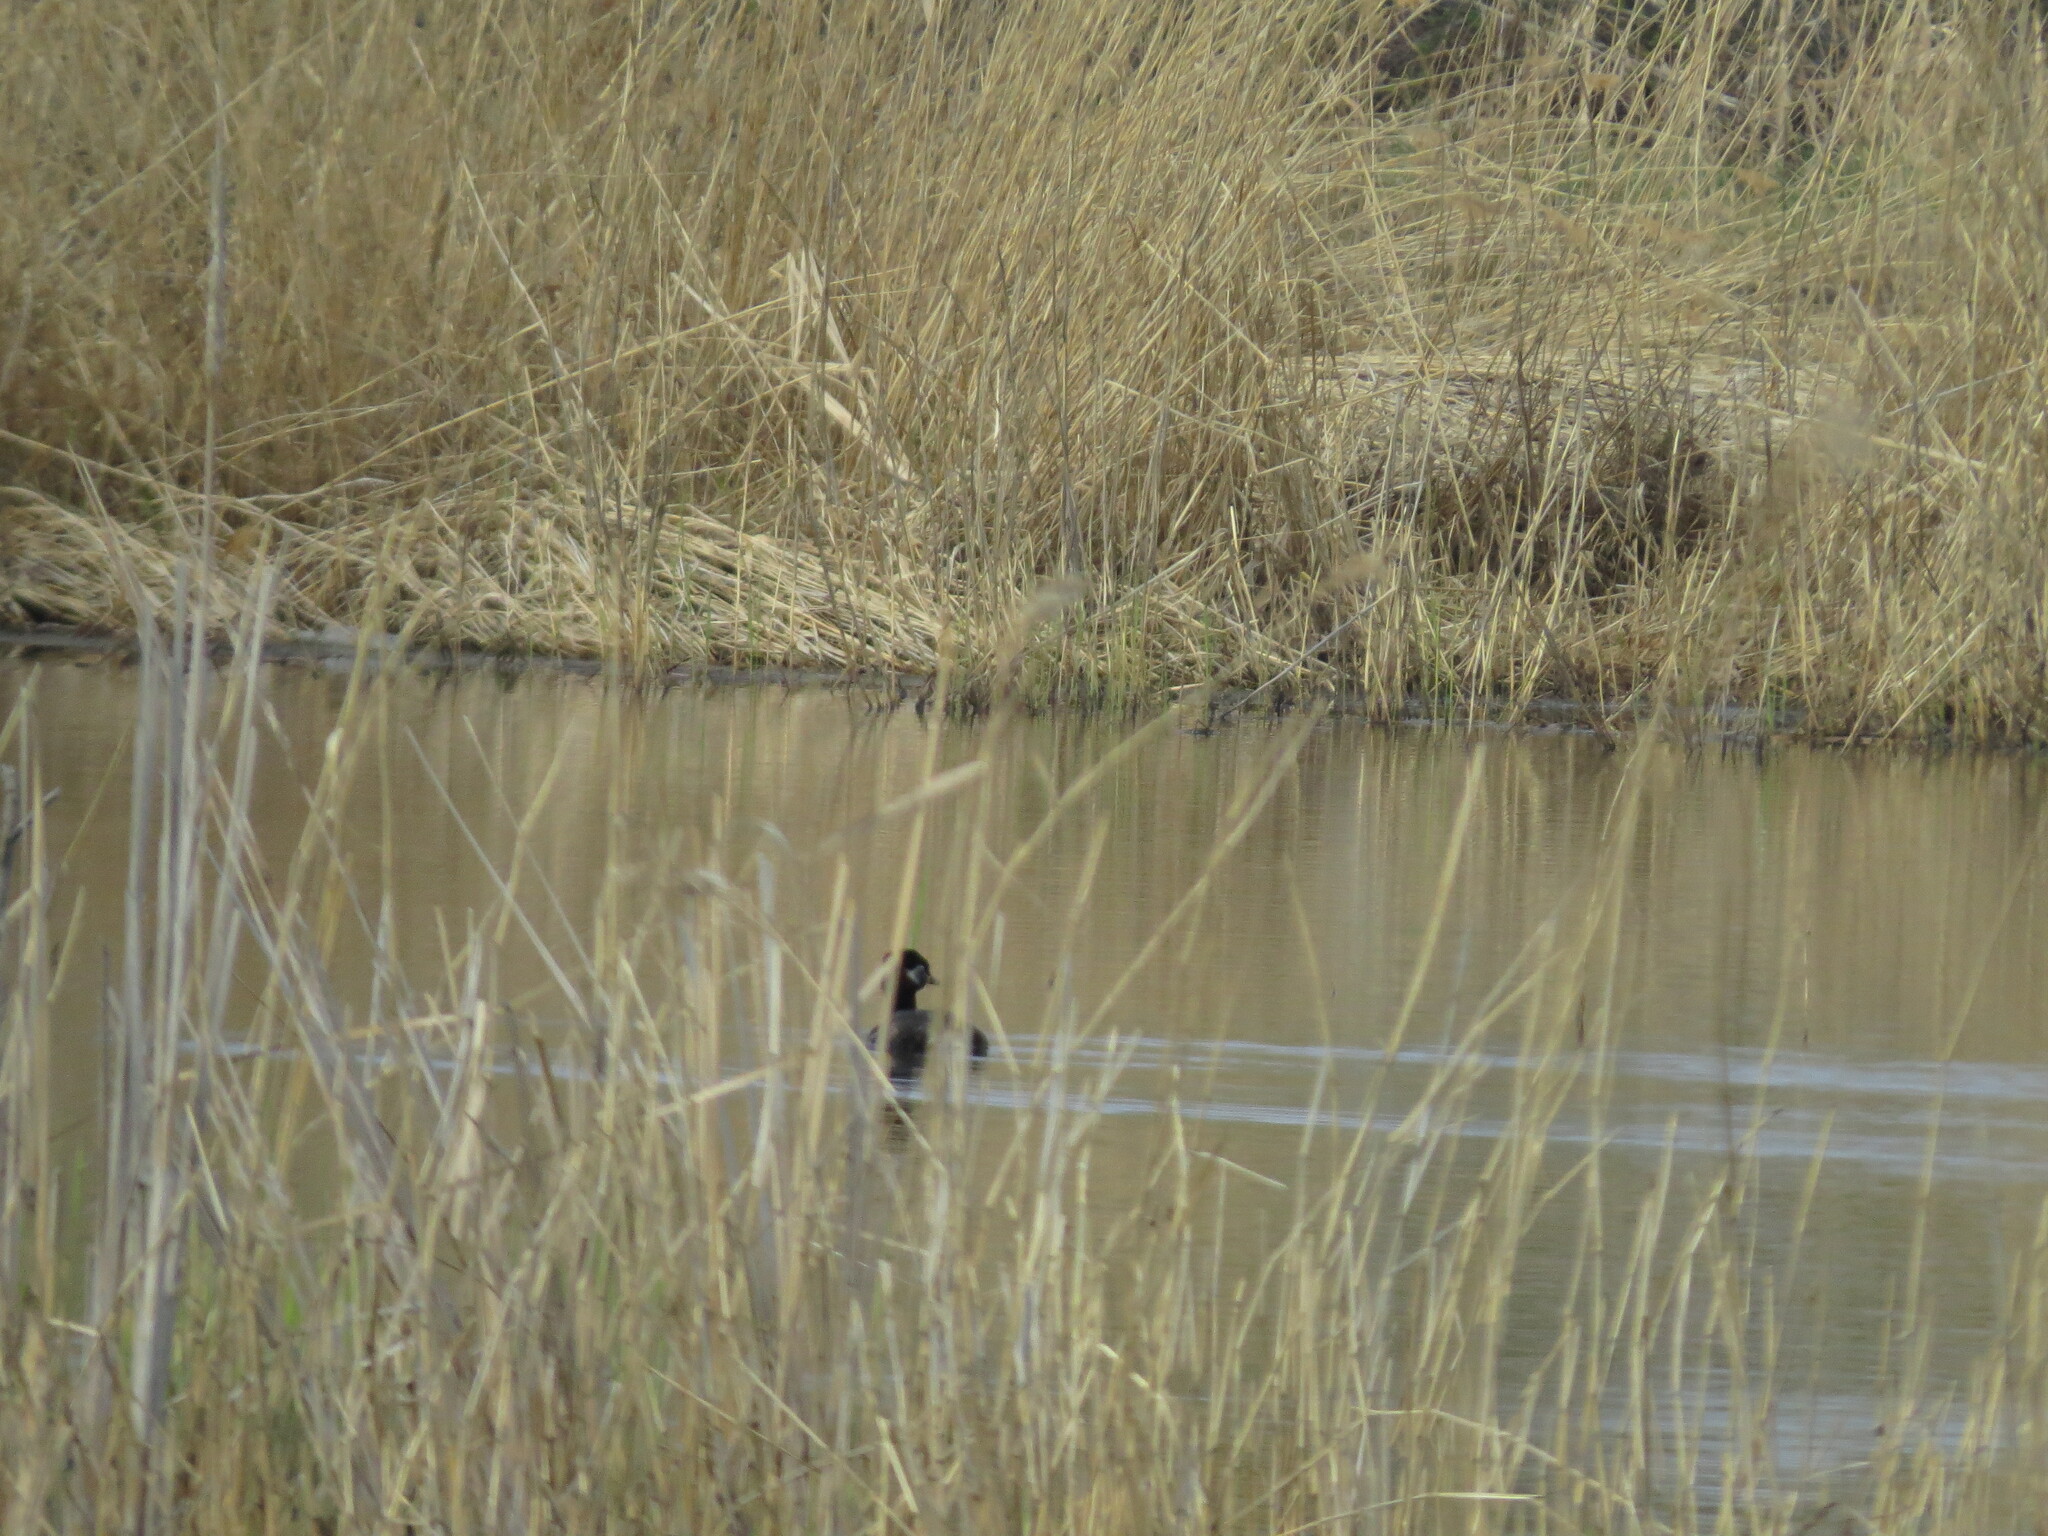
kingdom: Animalia
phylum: Chordata
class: Aves
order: Podicipediformes
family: Podicipedidae
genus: Podiceps
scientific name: Podiceps grisegena
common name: Red-necked grebe
